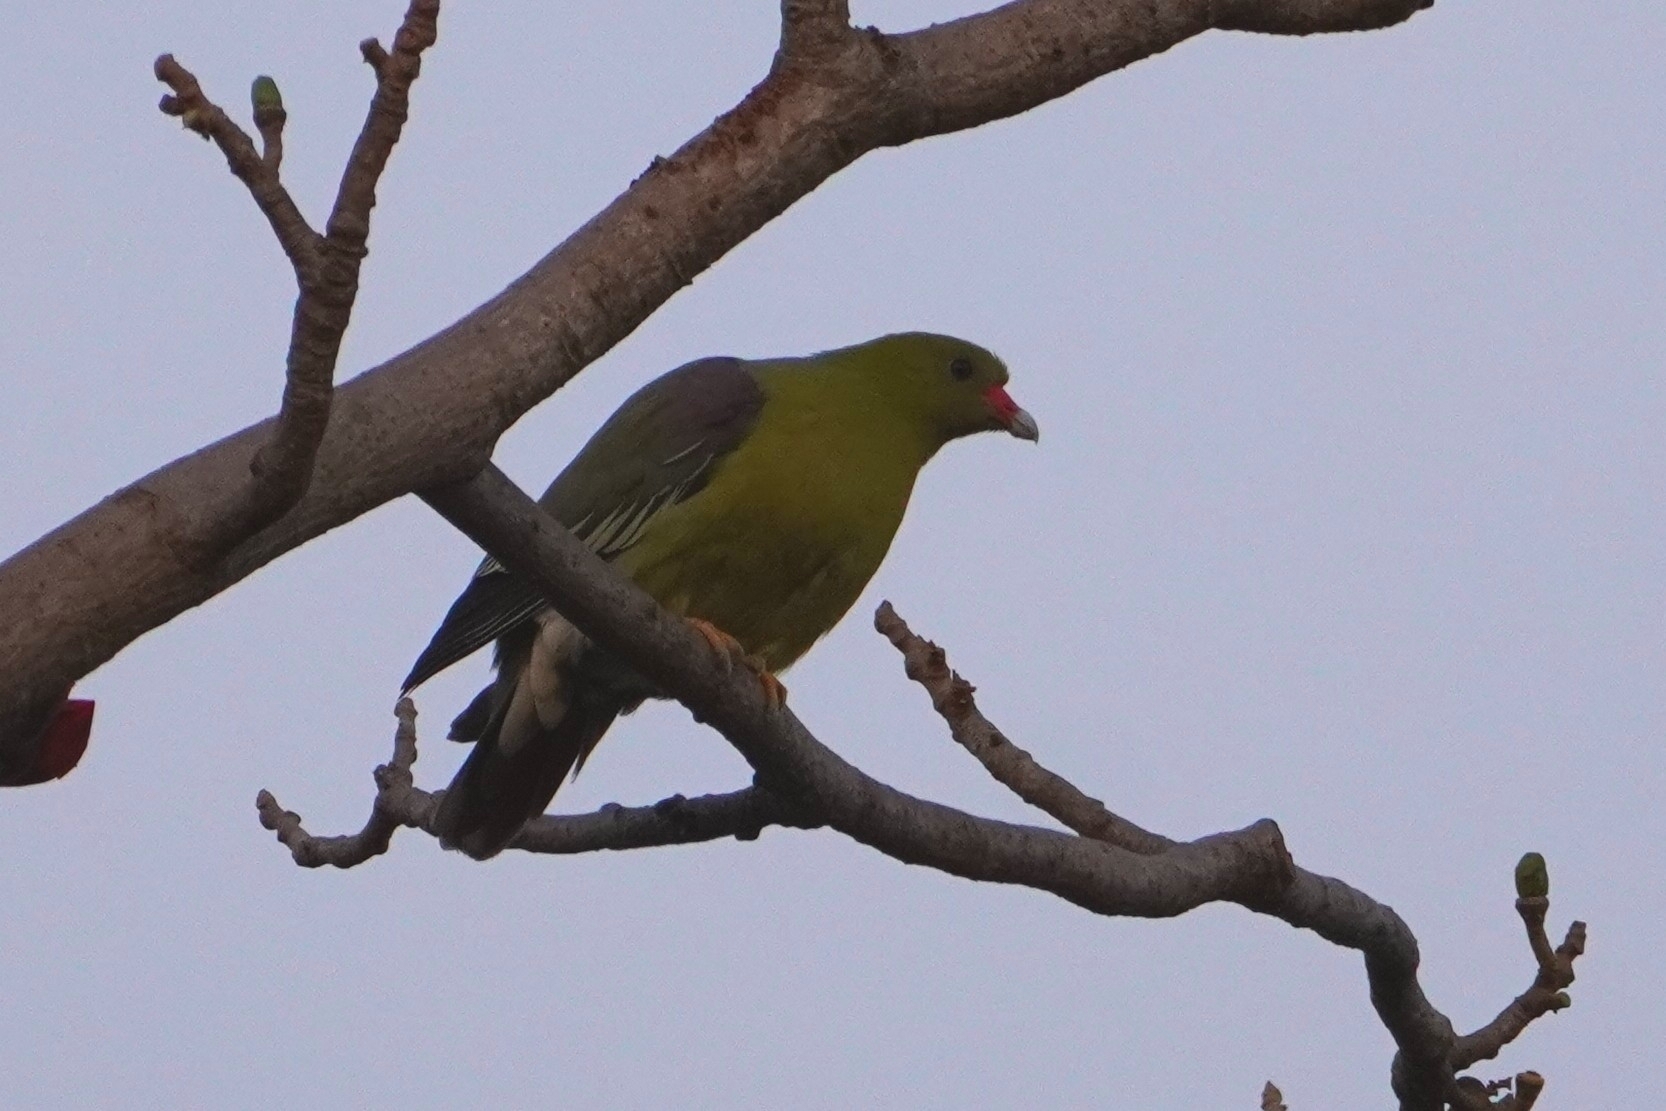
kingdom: Animalia
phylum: Chordata
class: Aves
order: Columbiformes
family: Columbidae
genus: Treron
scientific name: Treron calvus
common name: African green pigeon
